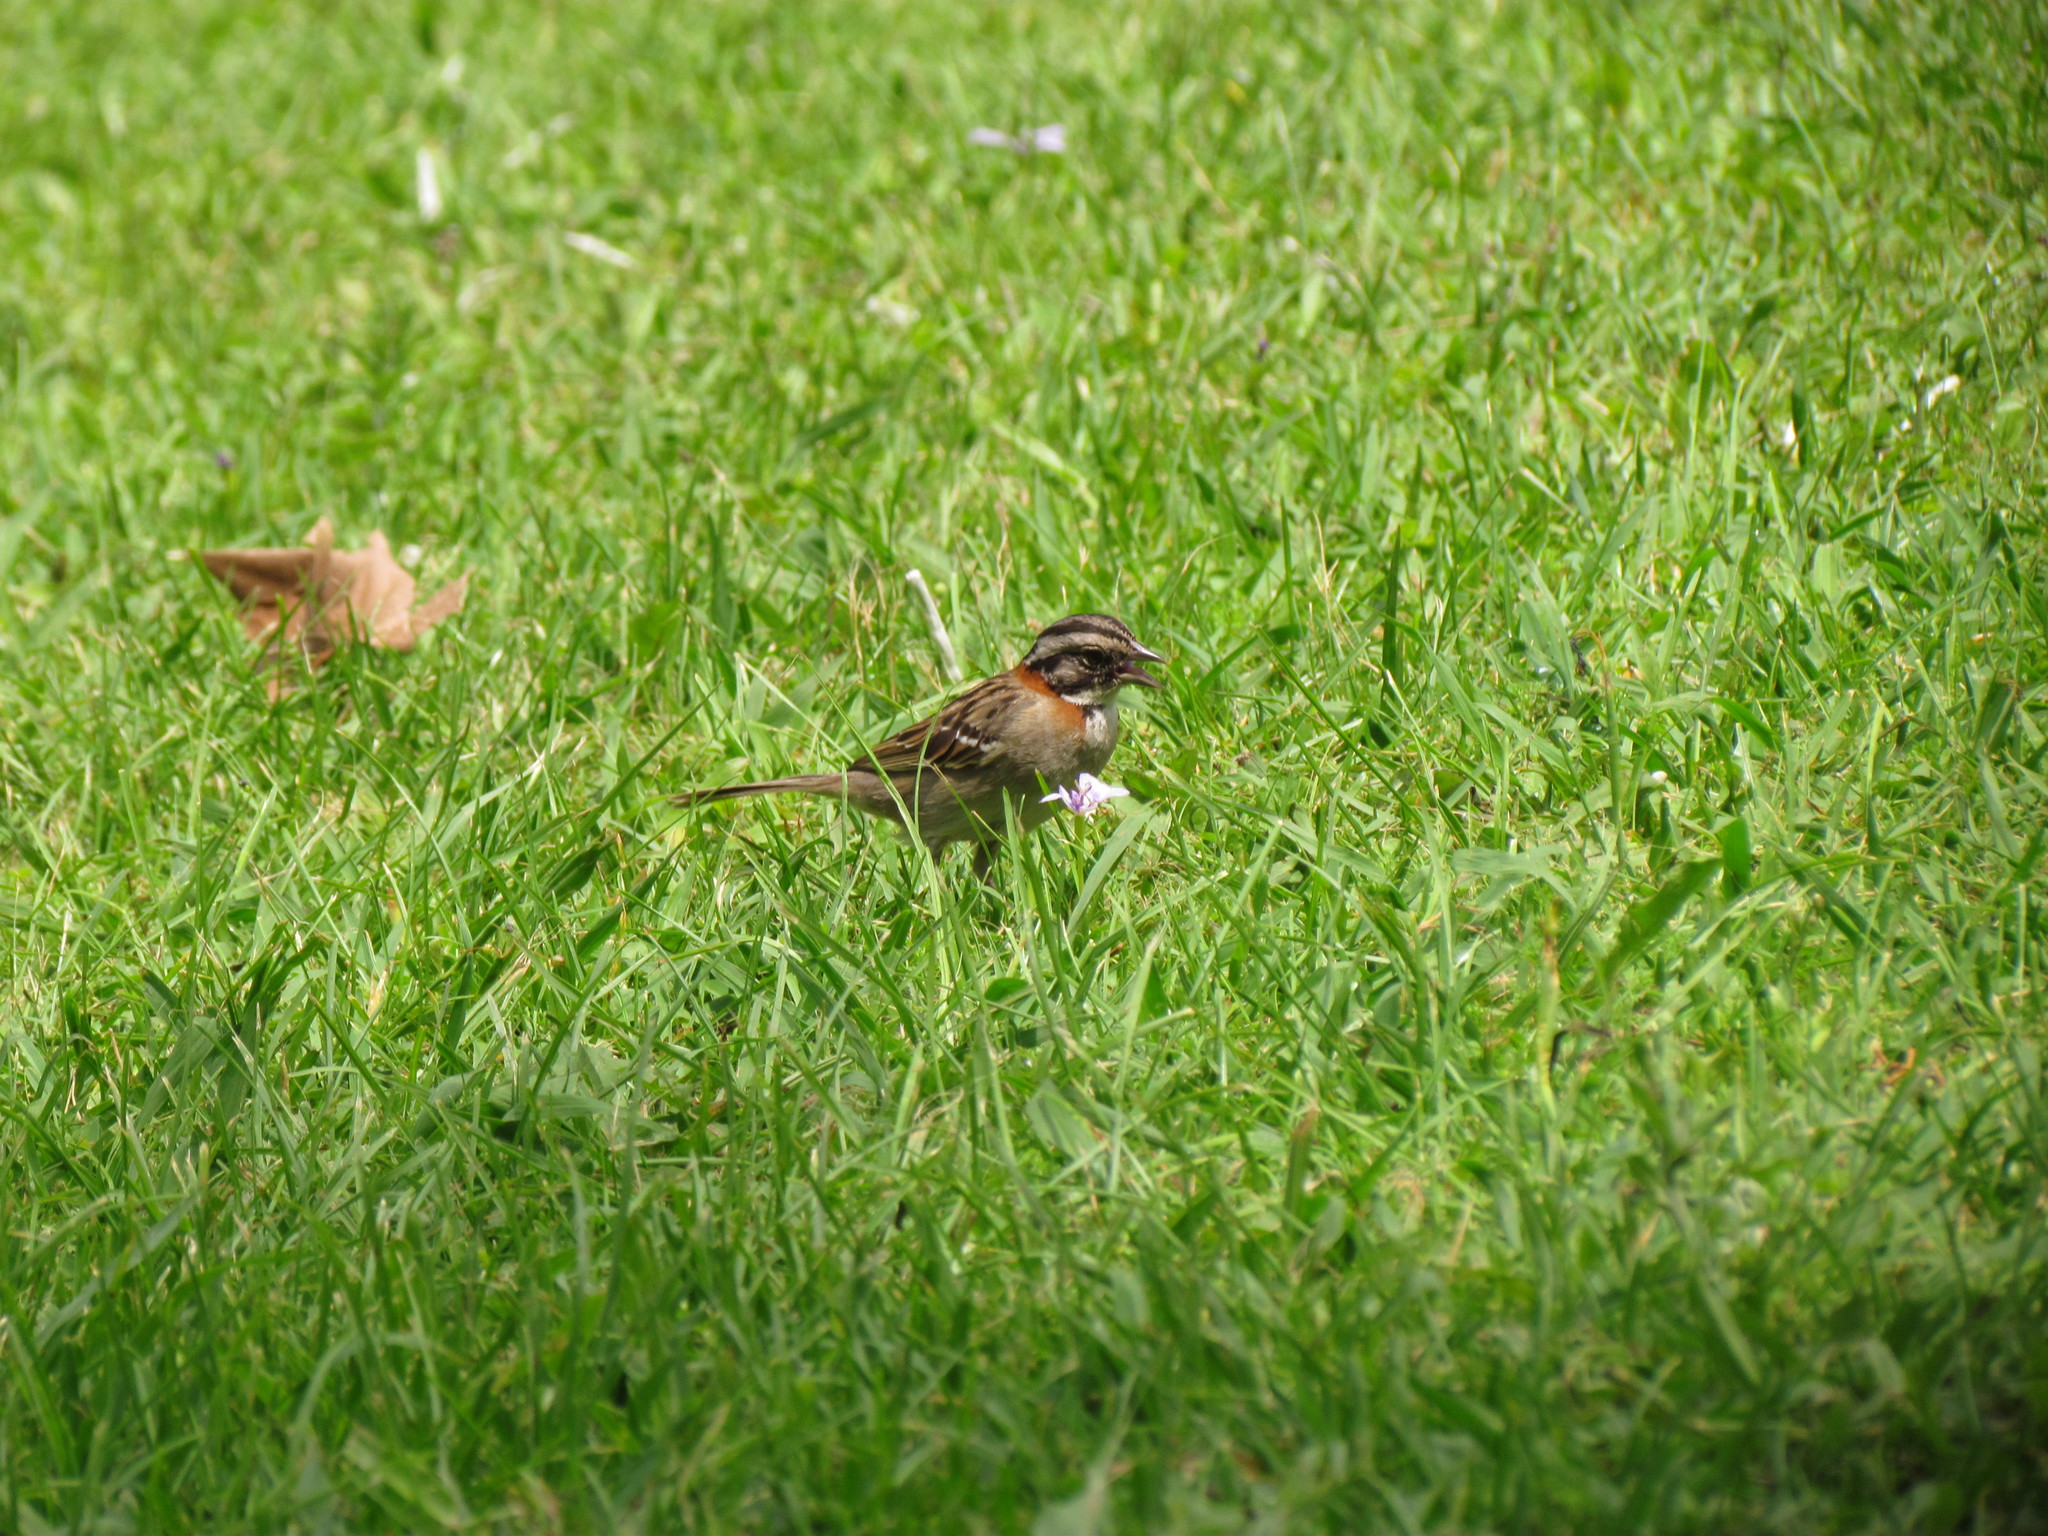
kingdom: Animalia
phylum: Chordata
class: Aves
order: Passeriformes
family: Passerellidae
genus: Zonotrichia
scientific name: Zonotrichia capensis
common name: Rufous-collared sparrow
